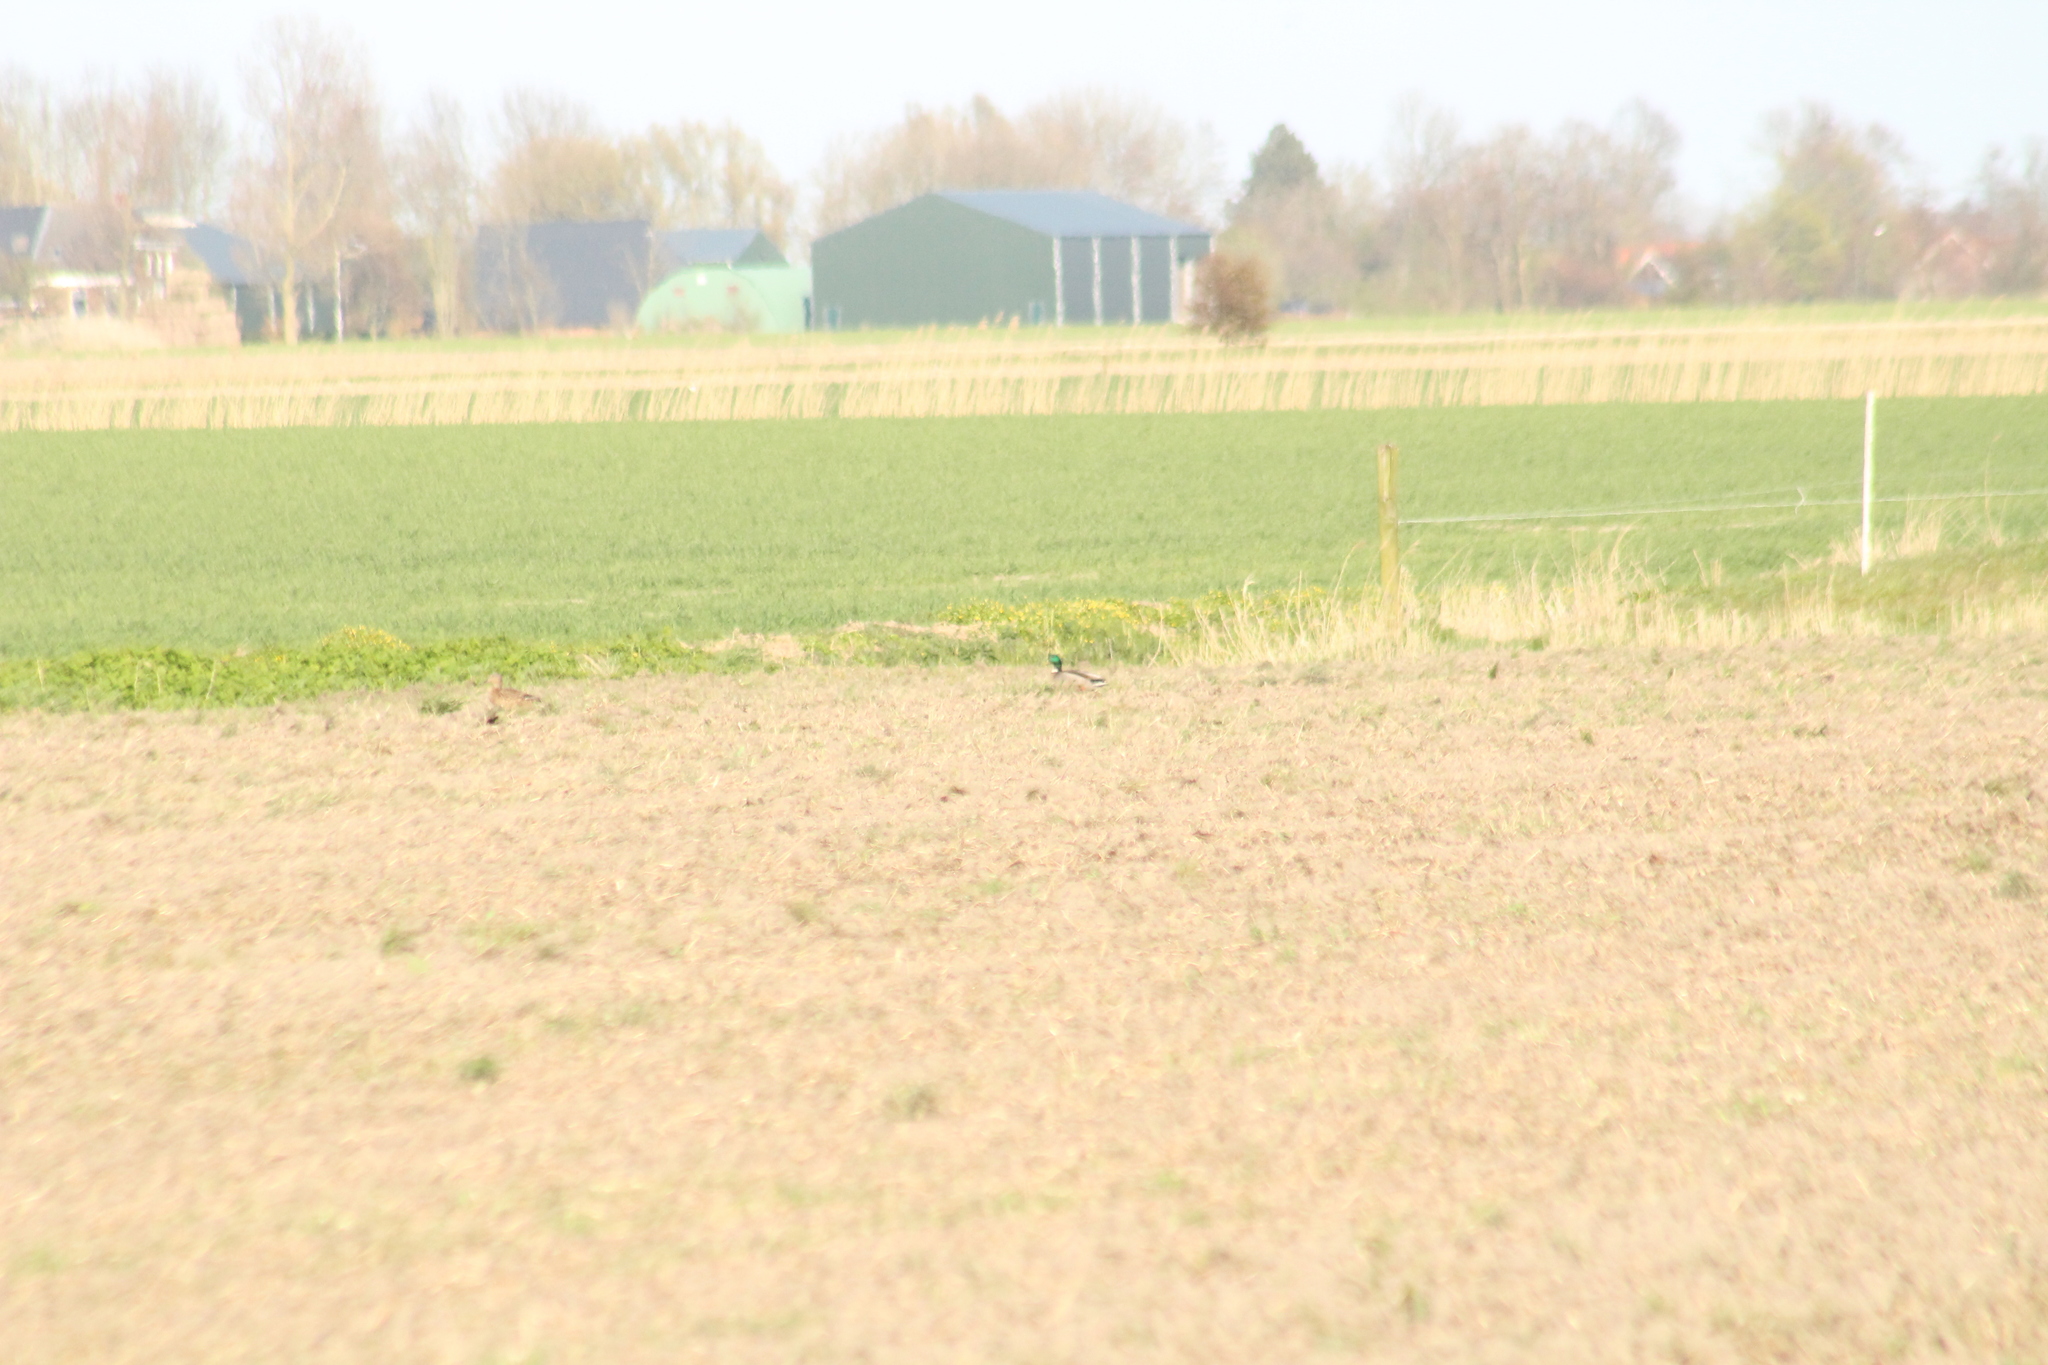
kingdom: Animalia
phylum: Chordata
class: Aves
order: Anseriformes
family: Anatidae
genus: Anas
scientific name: Anas platyrhynchos
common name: Mallard
